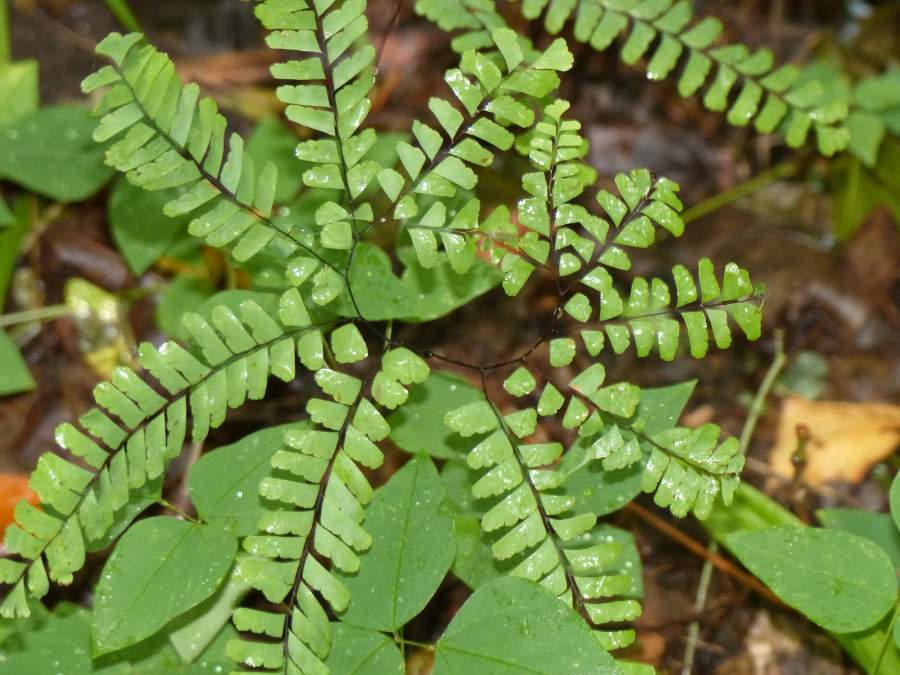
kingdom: Plantae
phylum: Tracheophyta
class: Polypodiopsida
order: Polypodiales
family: Pteridaceae
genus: Adiantum
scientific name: Adiantum pedatum
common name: Five-finger fern
